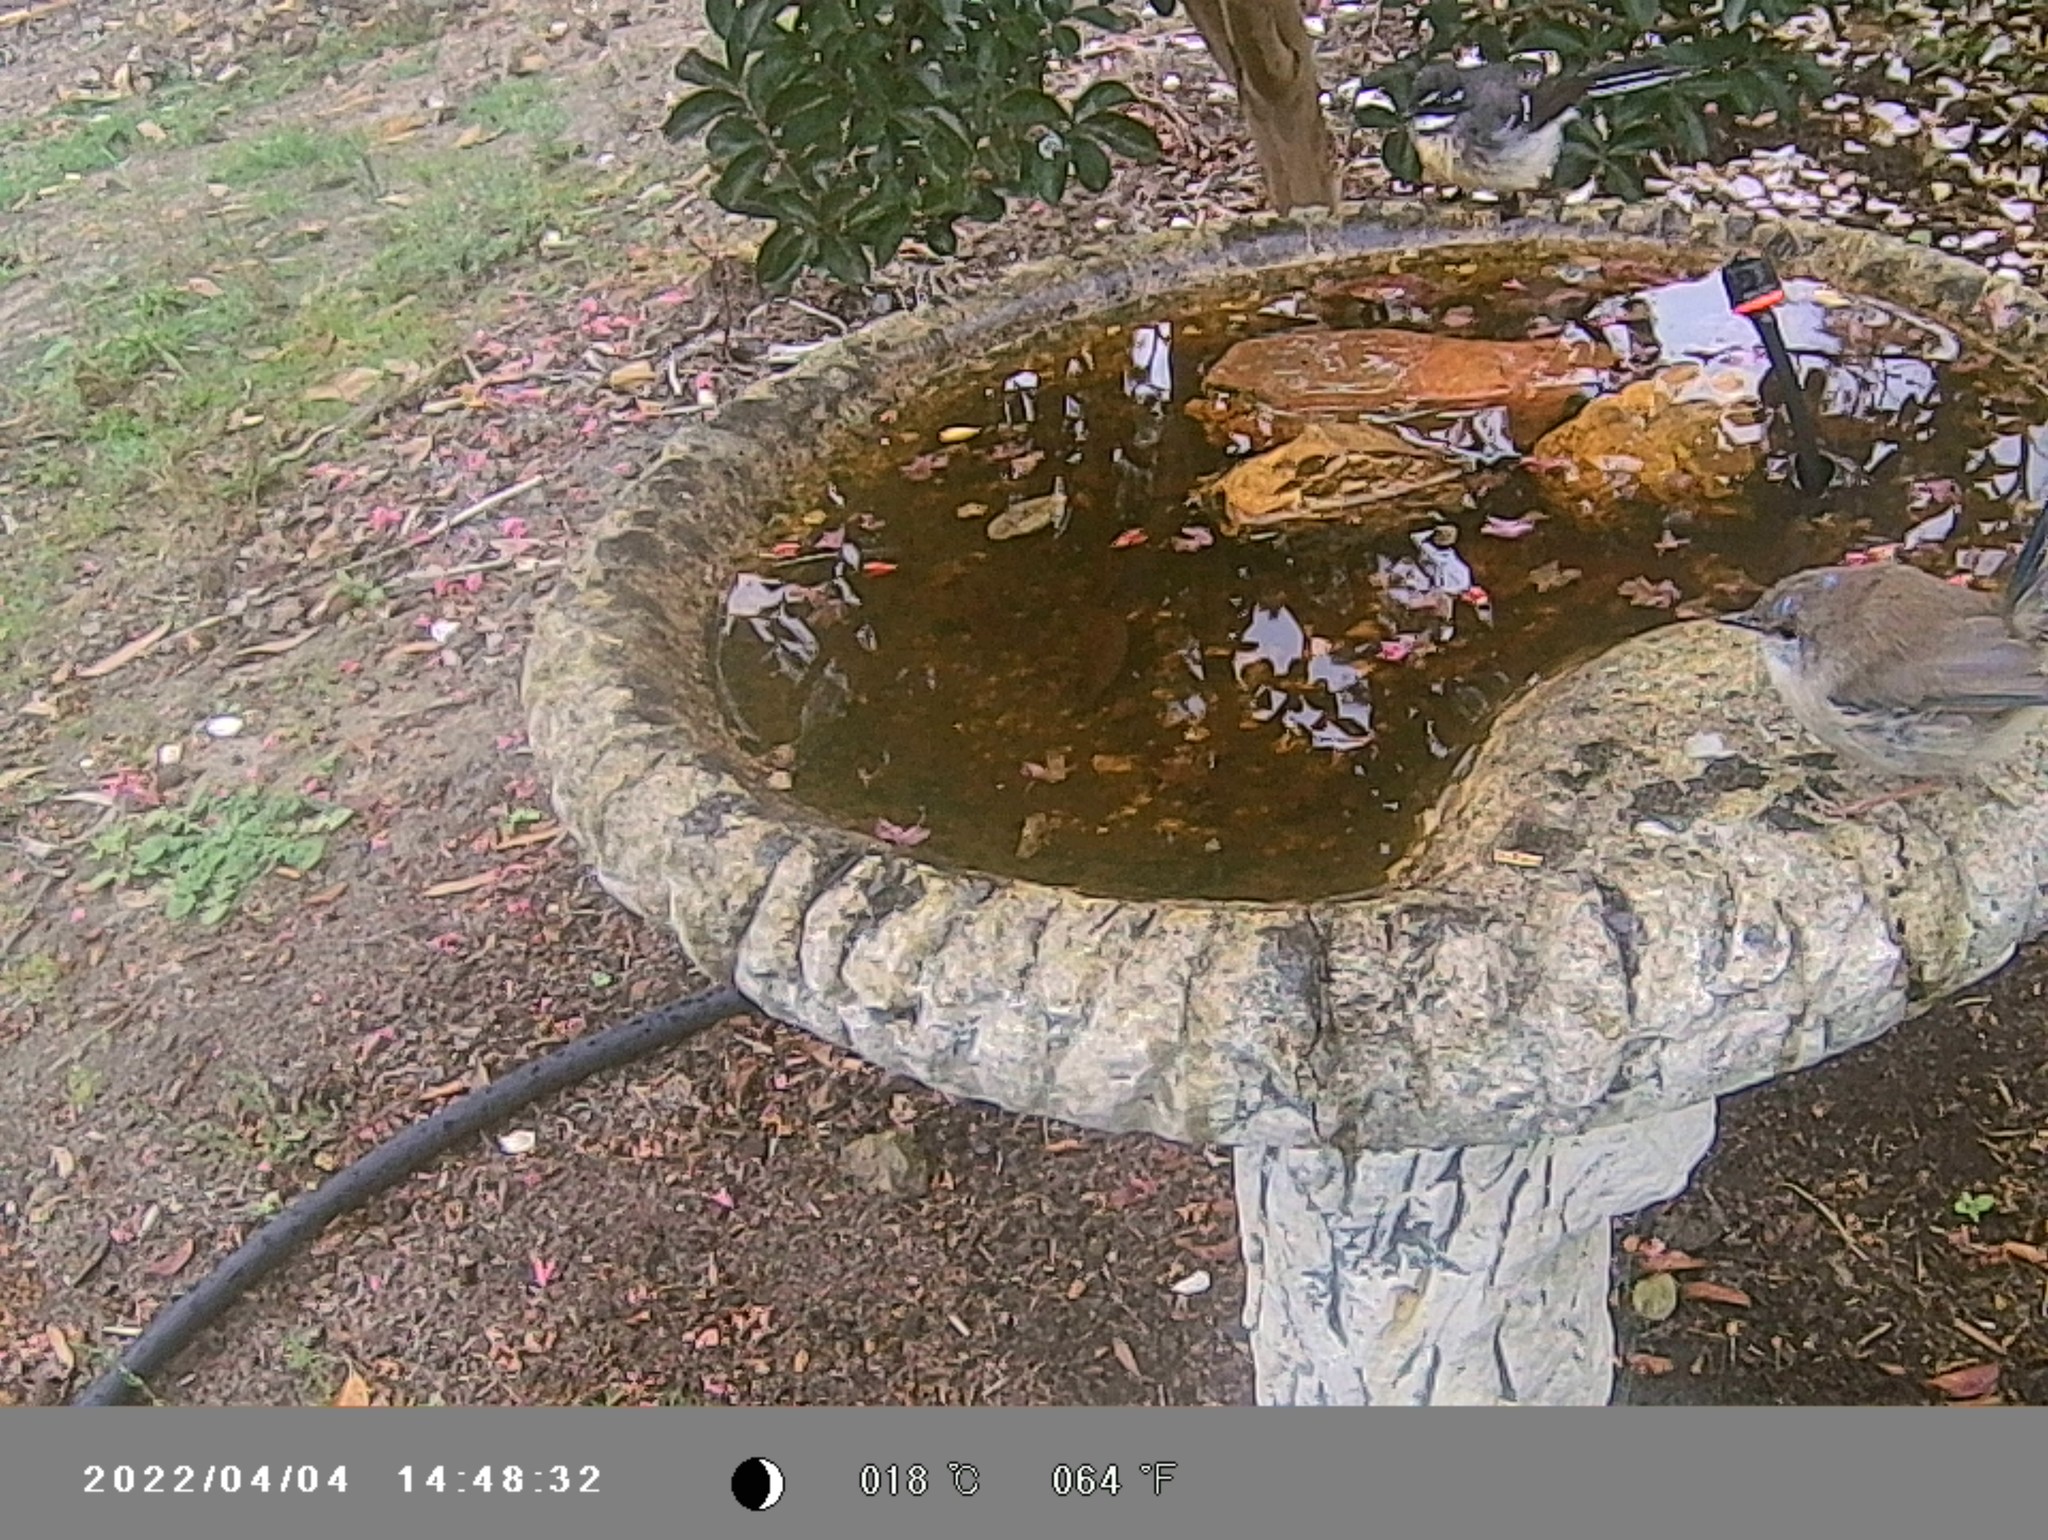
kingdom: Animalia
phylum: Chordata
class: Aves
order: Passeriformes
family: Rhipiduridae
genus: Rhipidura
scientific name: Rhipidura albiscapa
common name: Grey fantail
